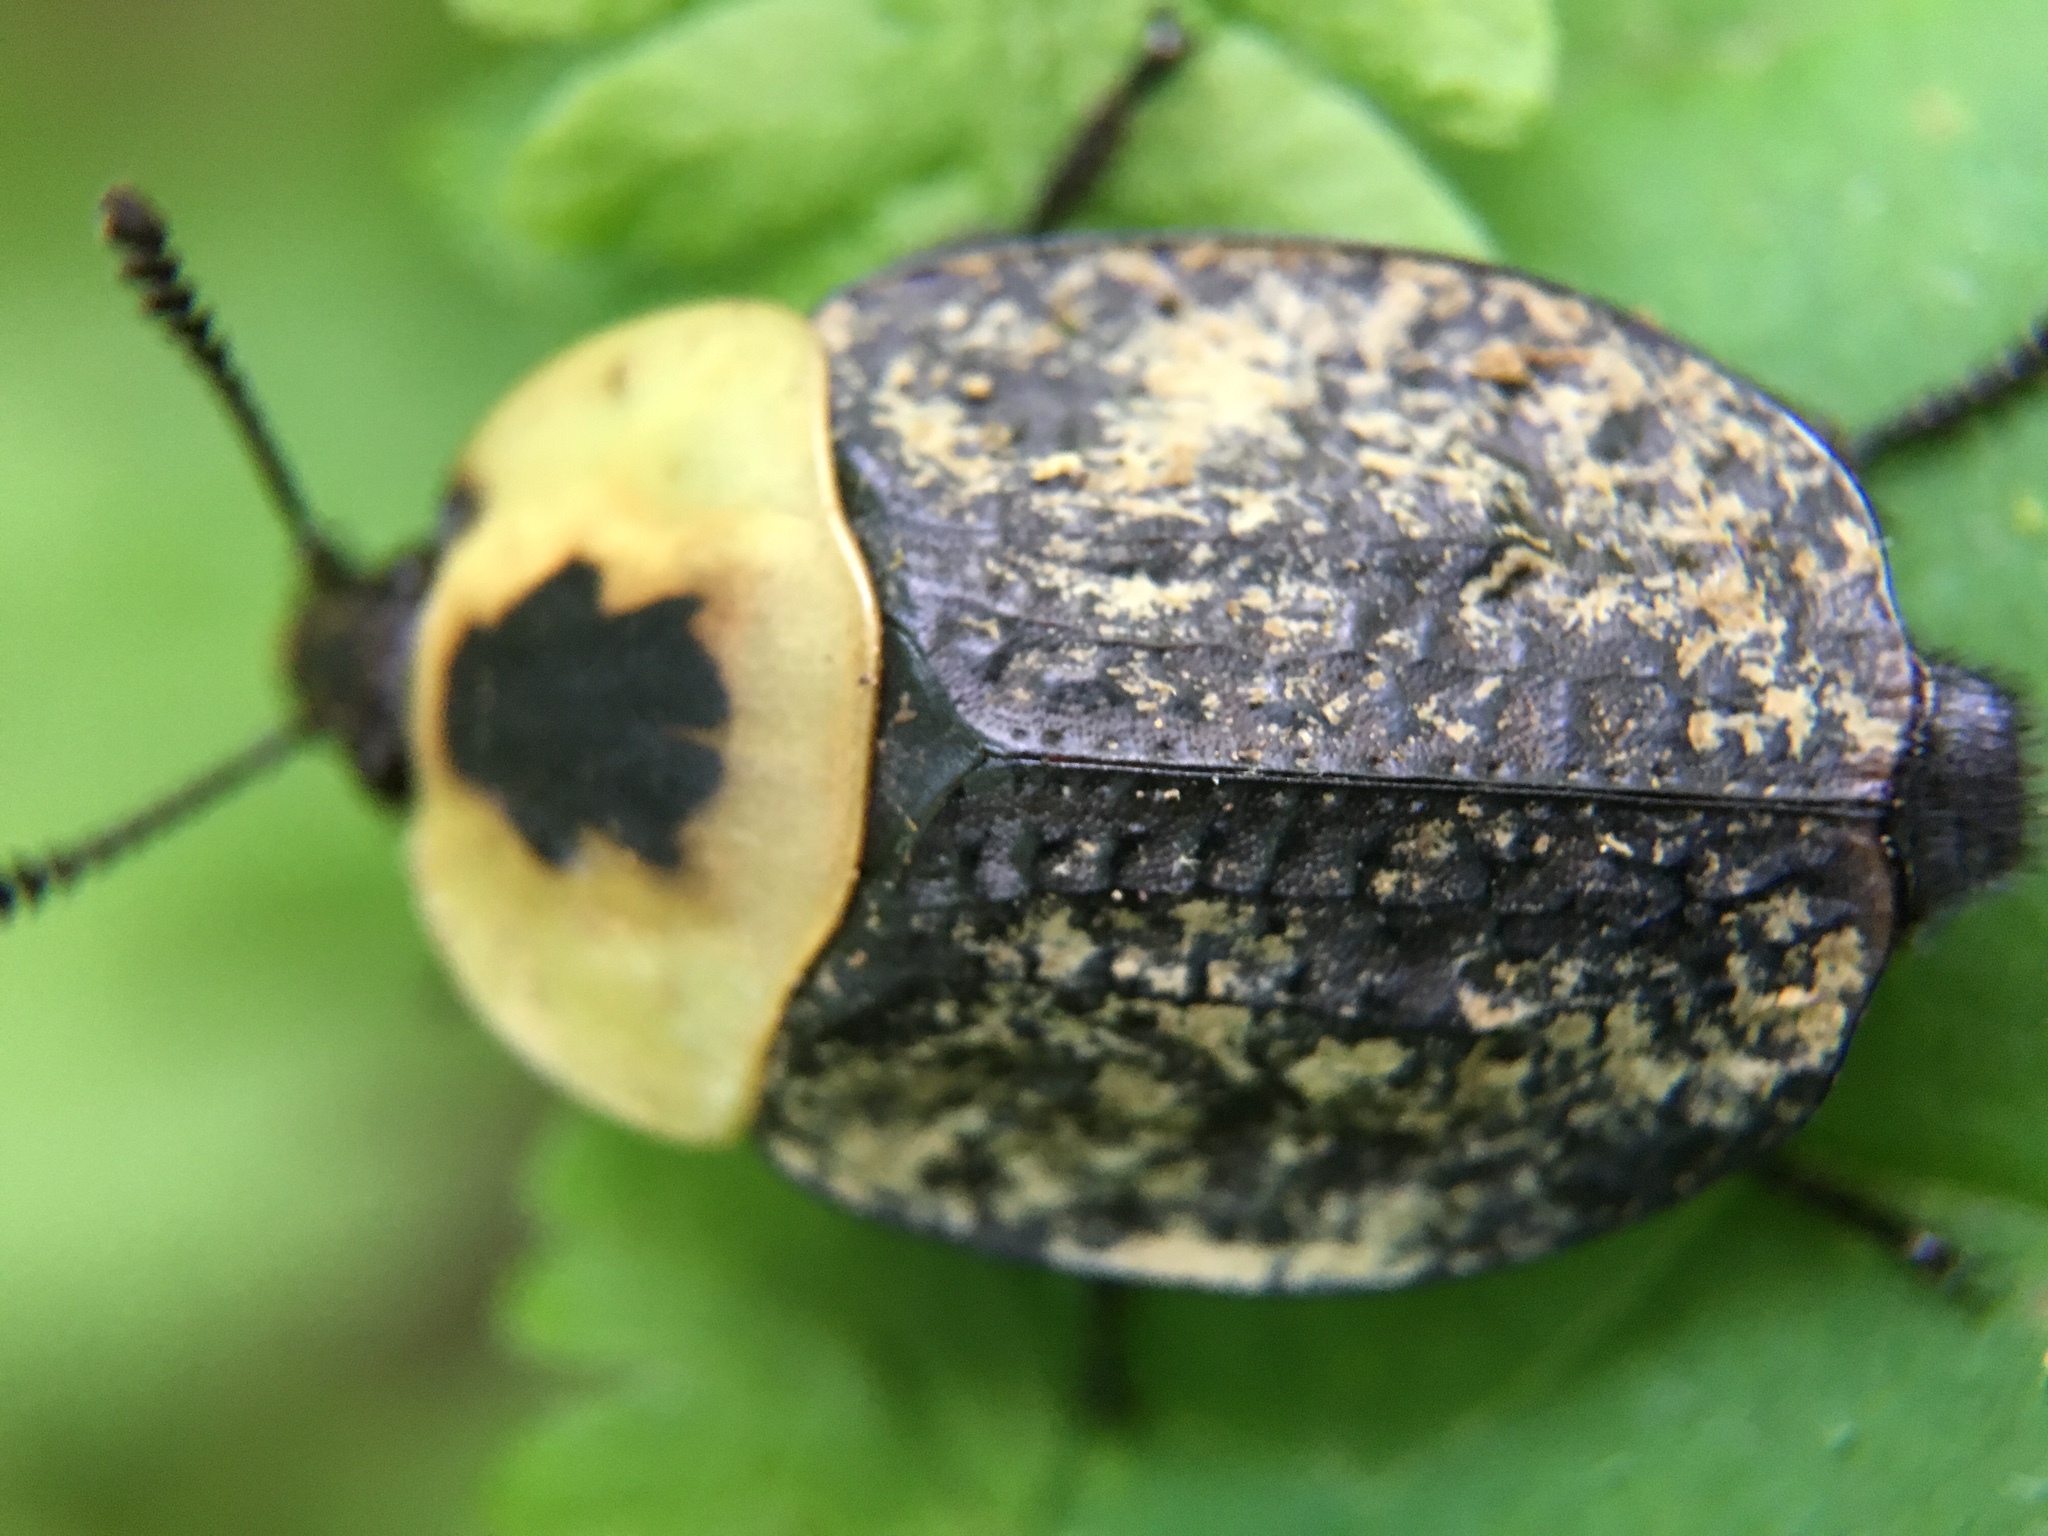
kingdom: Animalia
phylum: Arthropoda
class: Insecta
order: Coleoptera
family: Staphylinidae
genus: Necrophila
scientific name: Necrophila americana
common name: American carrion beetle
